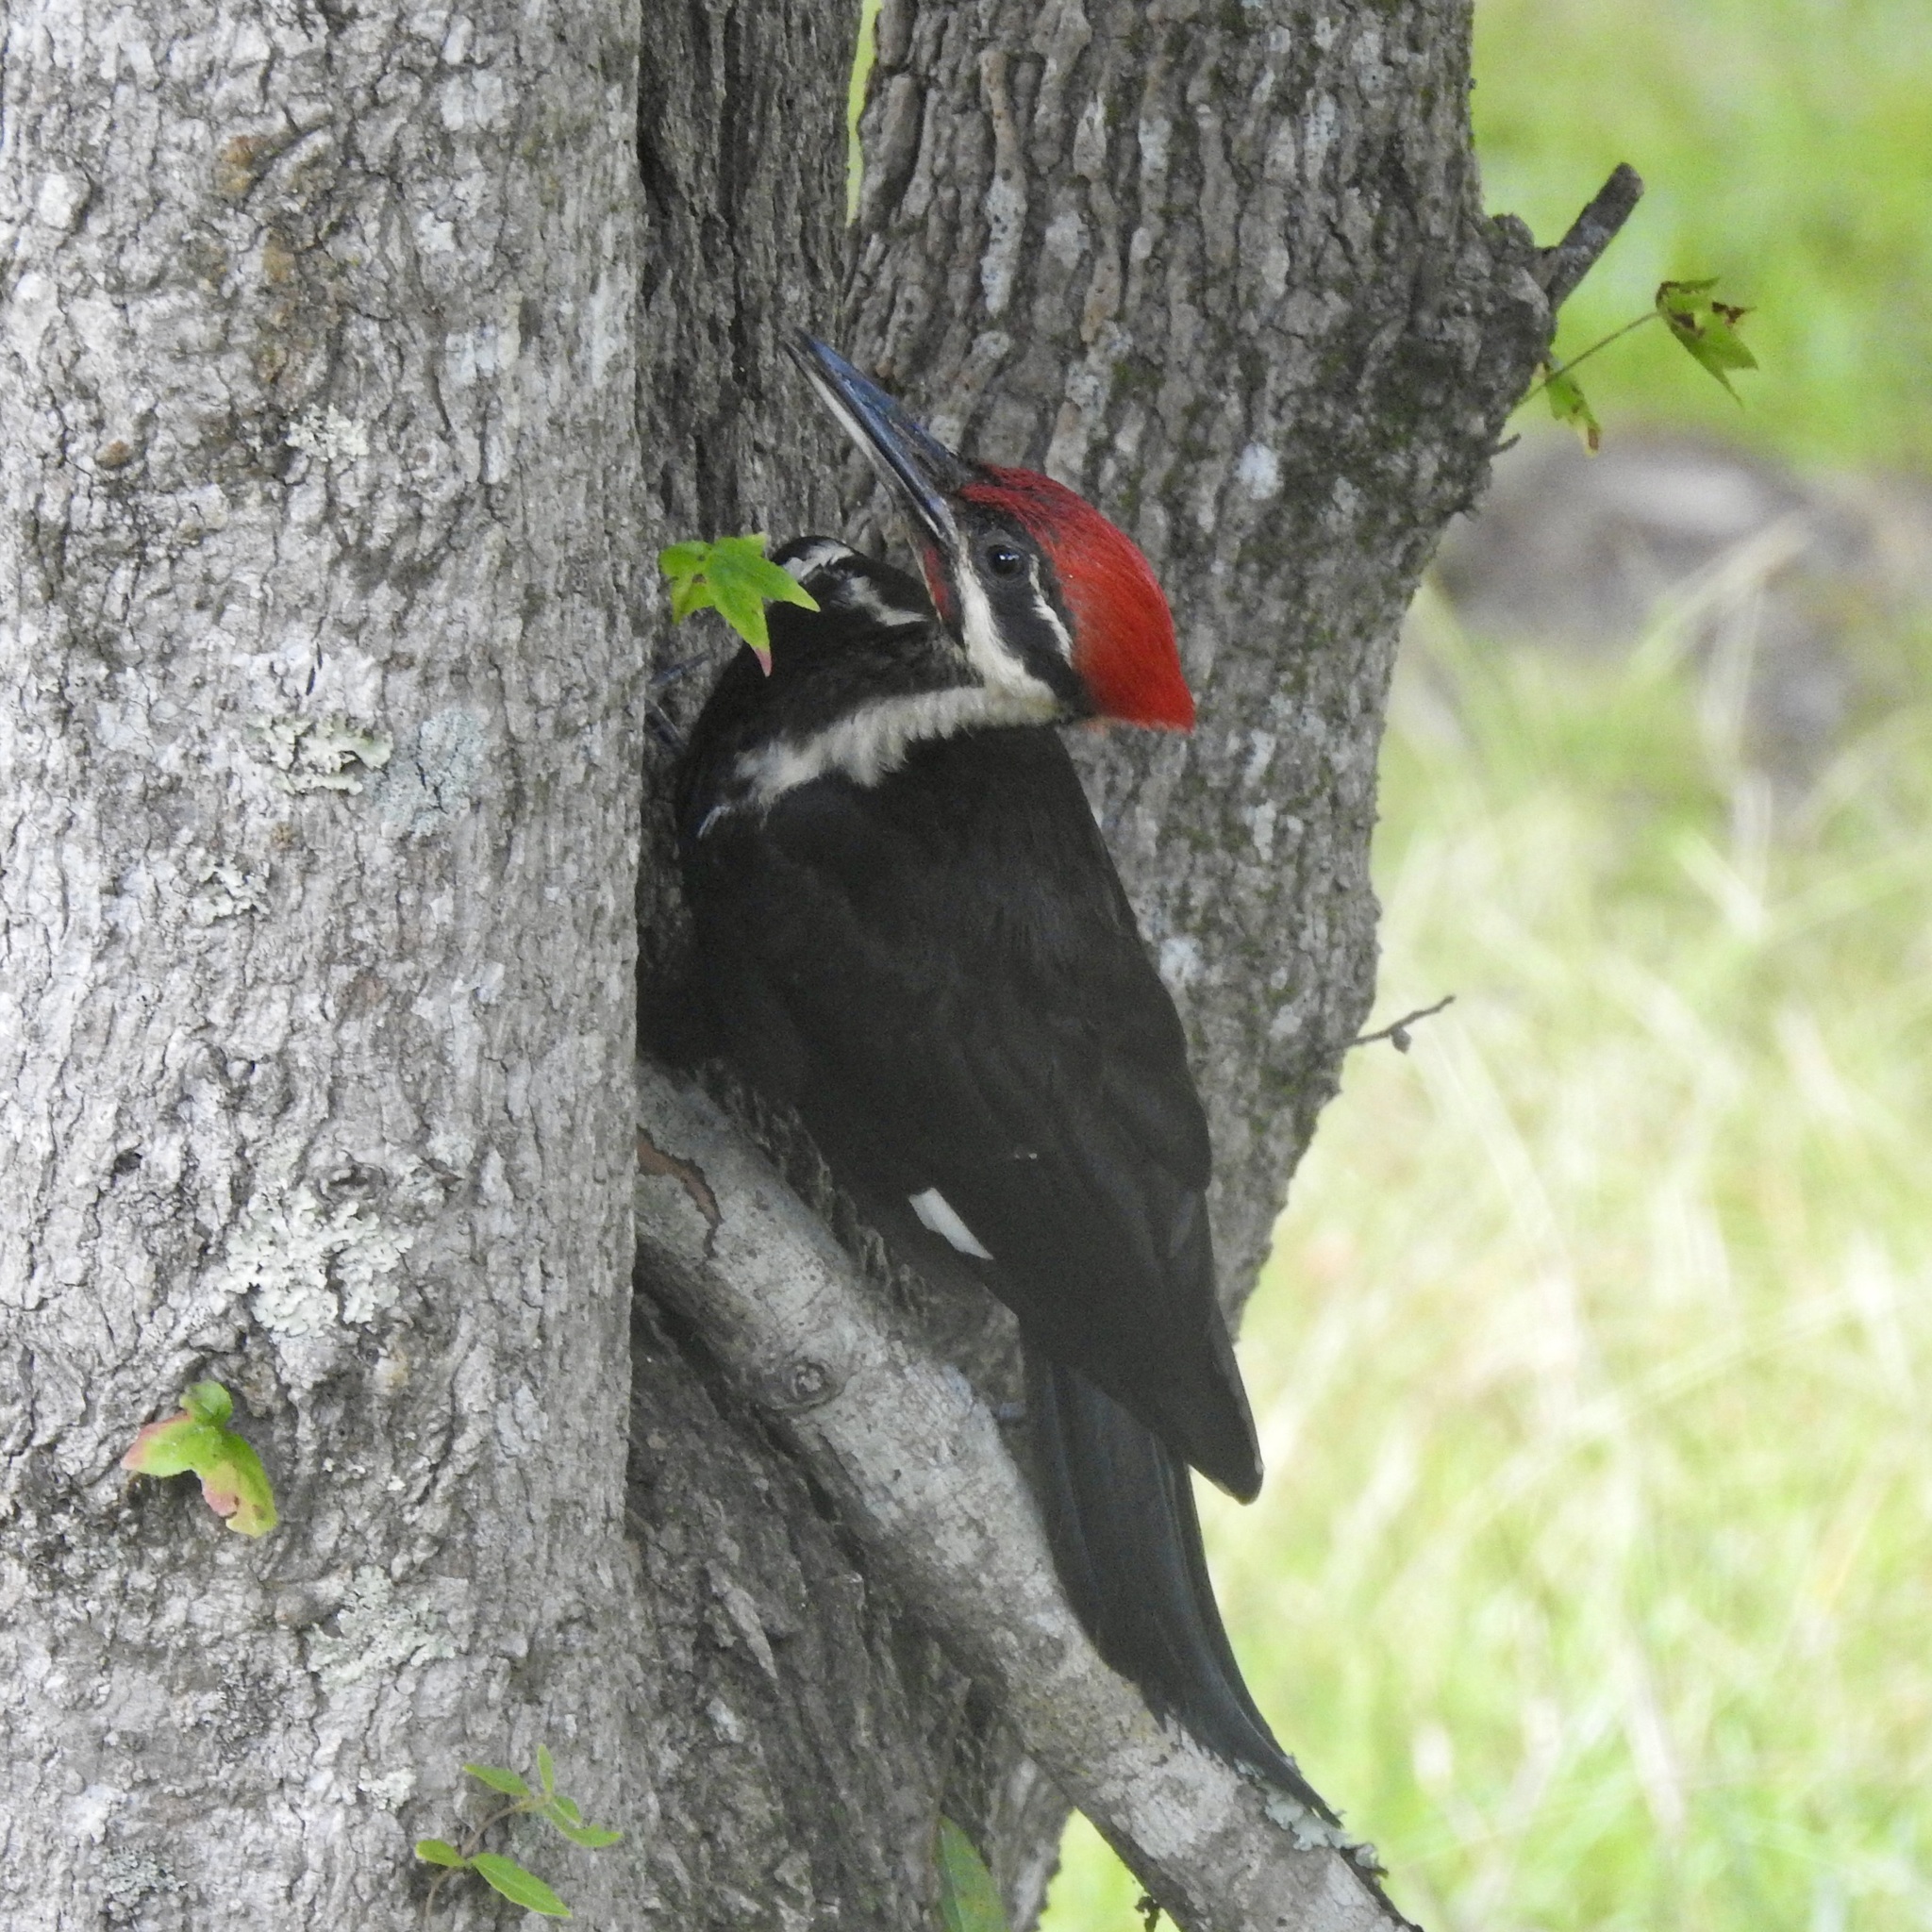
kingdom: Animalia
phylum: Chordata
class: Aves
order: Piciformes
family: Picidae
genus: Dryocopus
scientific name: Dryocopus pileatus
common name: Pileated woodpecker
